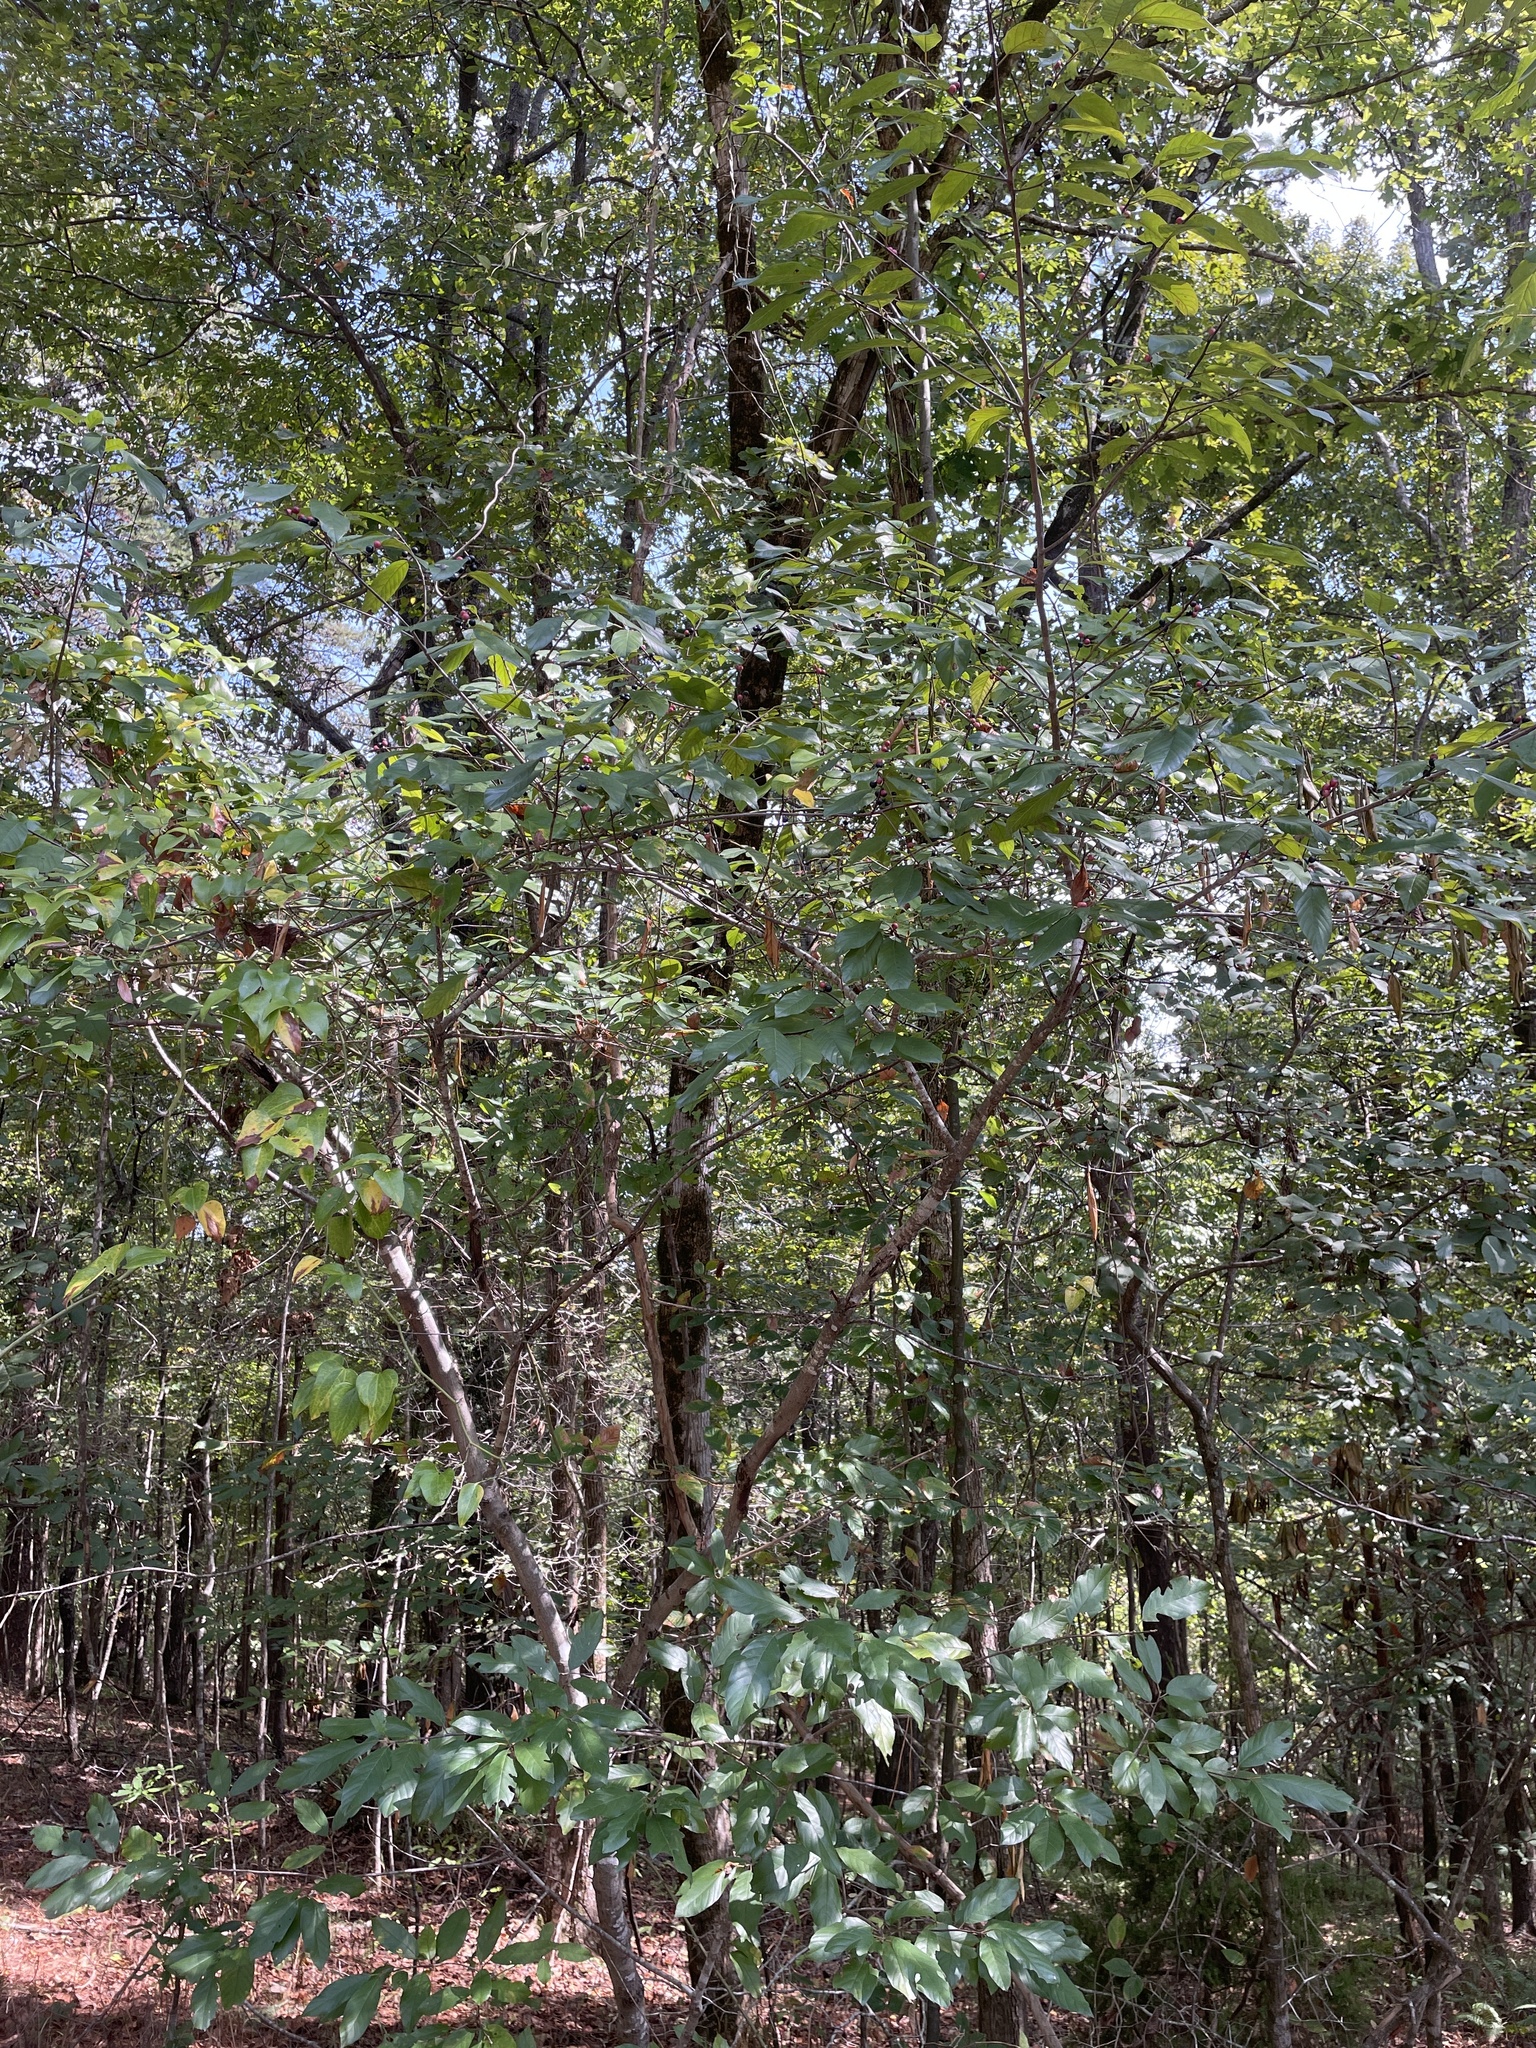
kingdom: Plantae
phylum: Tracheophyta
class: Magnoliopsida
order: Rosales
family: Rhamnaceae
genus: Frangula
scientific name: Frangula caroliniana
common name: Carolina buckthorn
